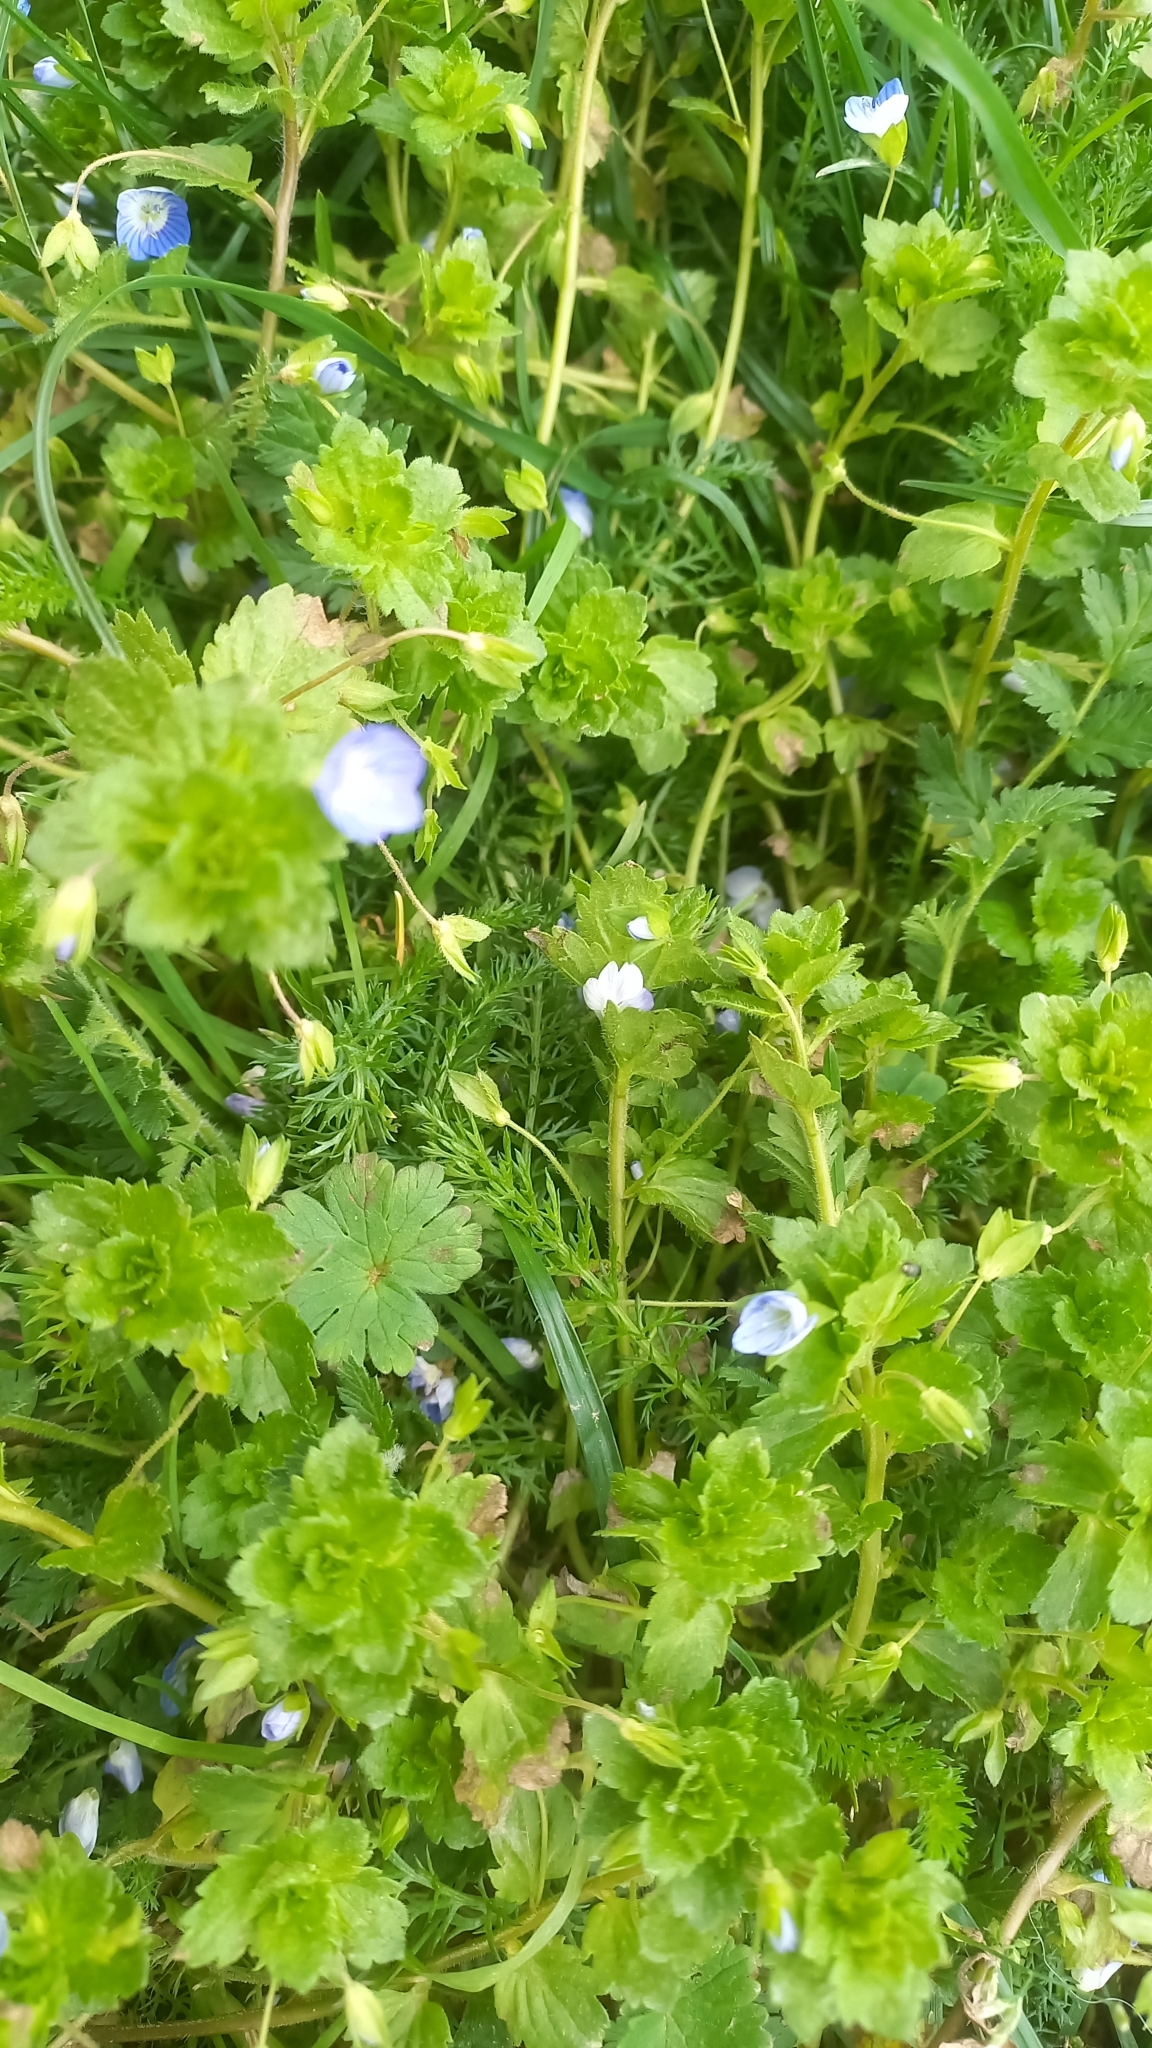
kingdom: Plantae
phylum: Tracheophyta
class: Magnoliopsida
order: Lamiales
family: Plantaginaceae
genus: Veronica
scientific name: Veronica persica
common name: Common field-speedwell
